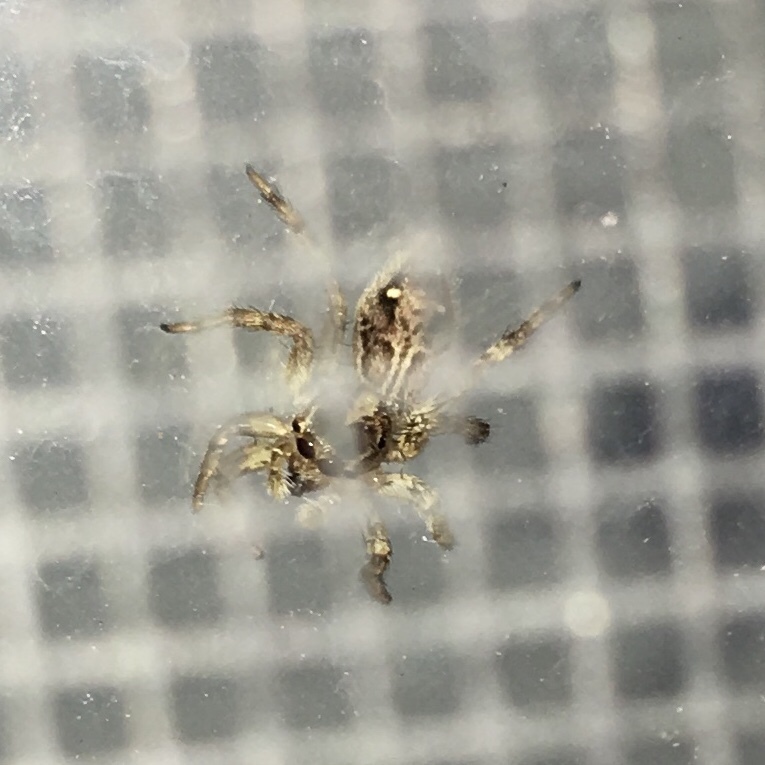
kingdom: Animalia
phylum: Arthropoda
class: Arachnida
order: Araneae
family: Salticidae
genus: Plexippus
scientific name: Plexippus paykulli
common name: Pantropical jumper
